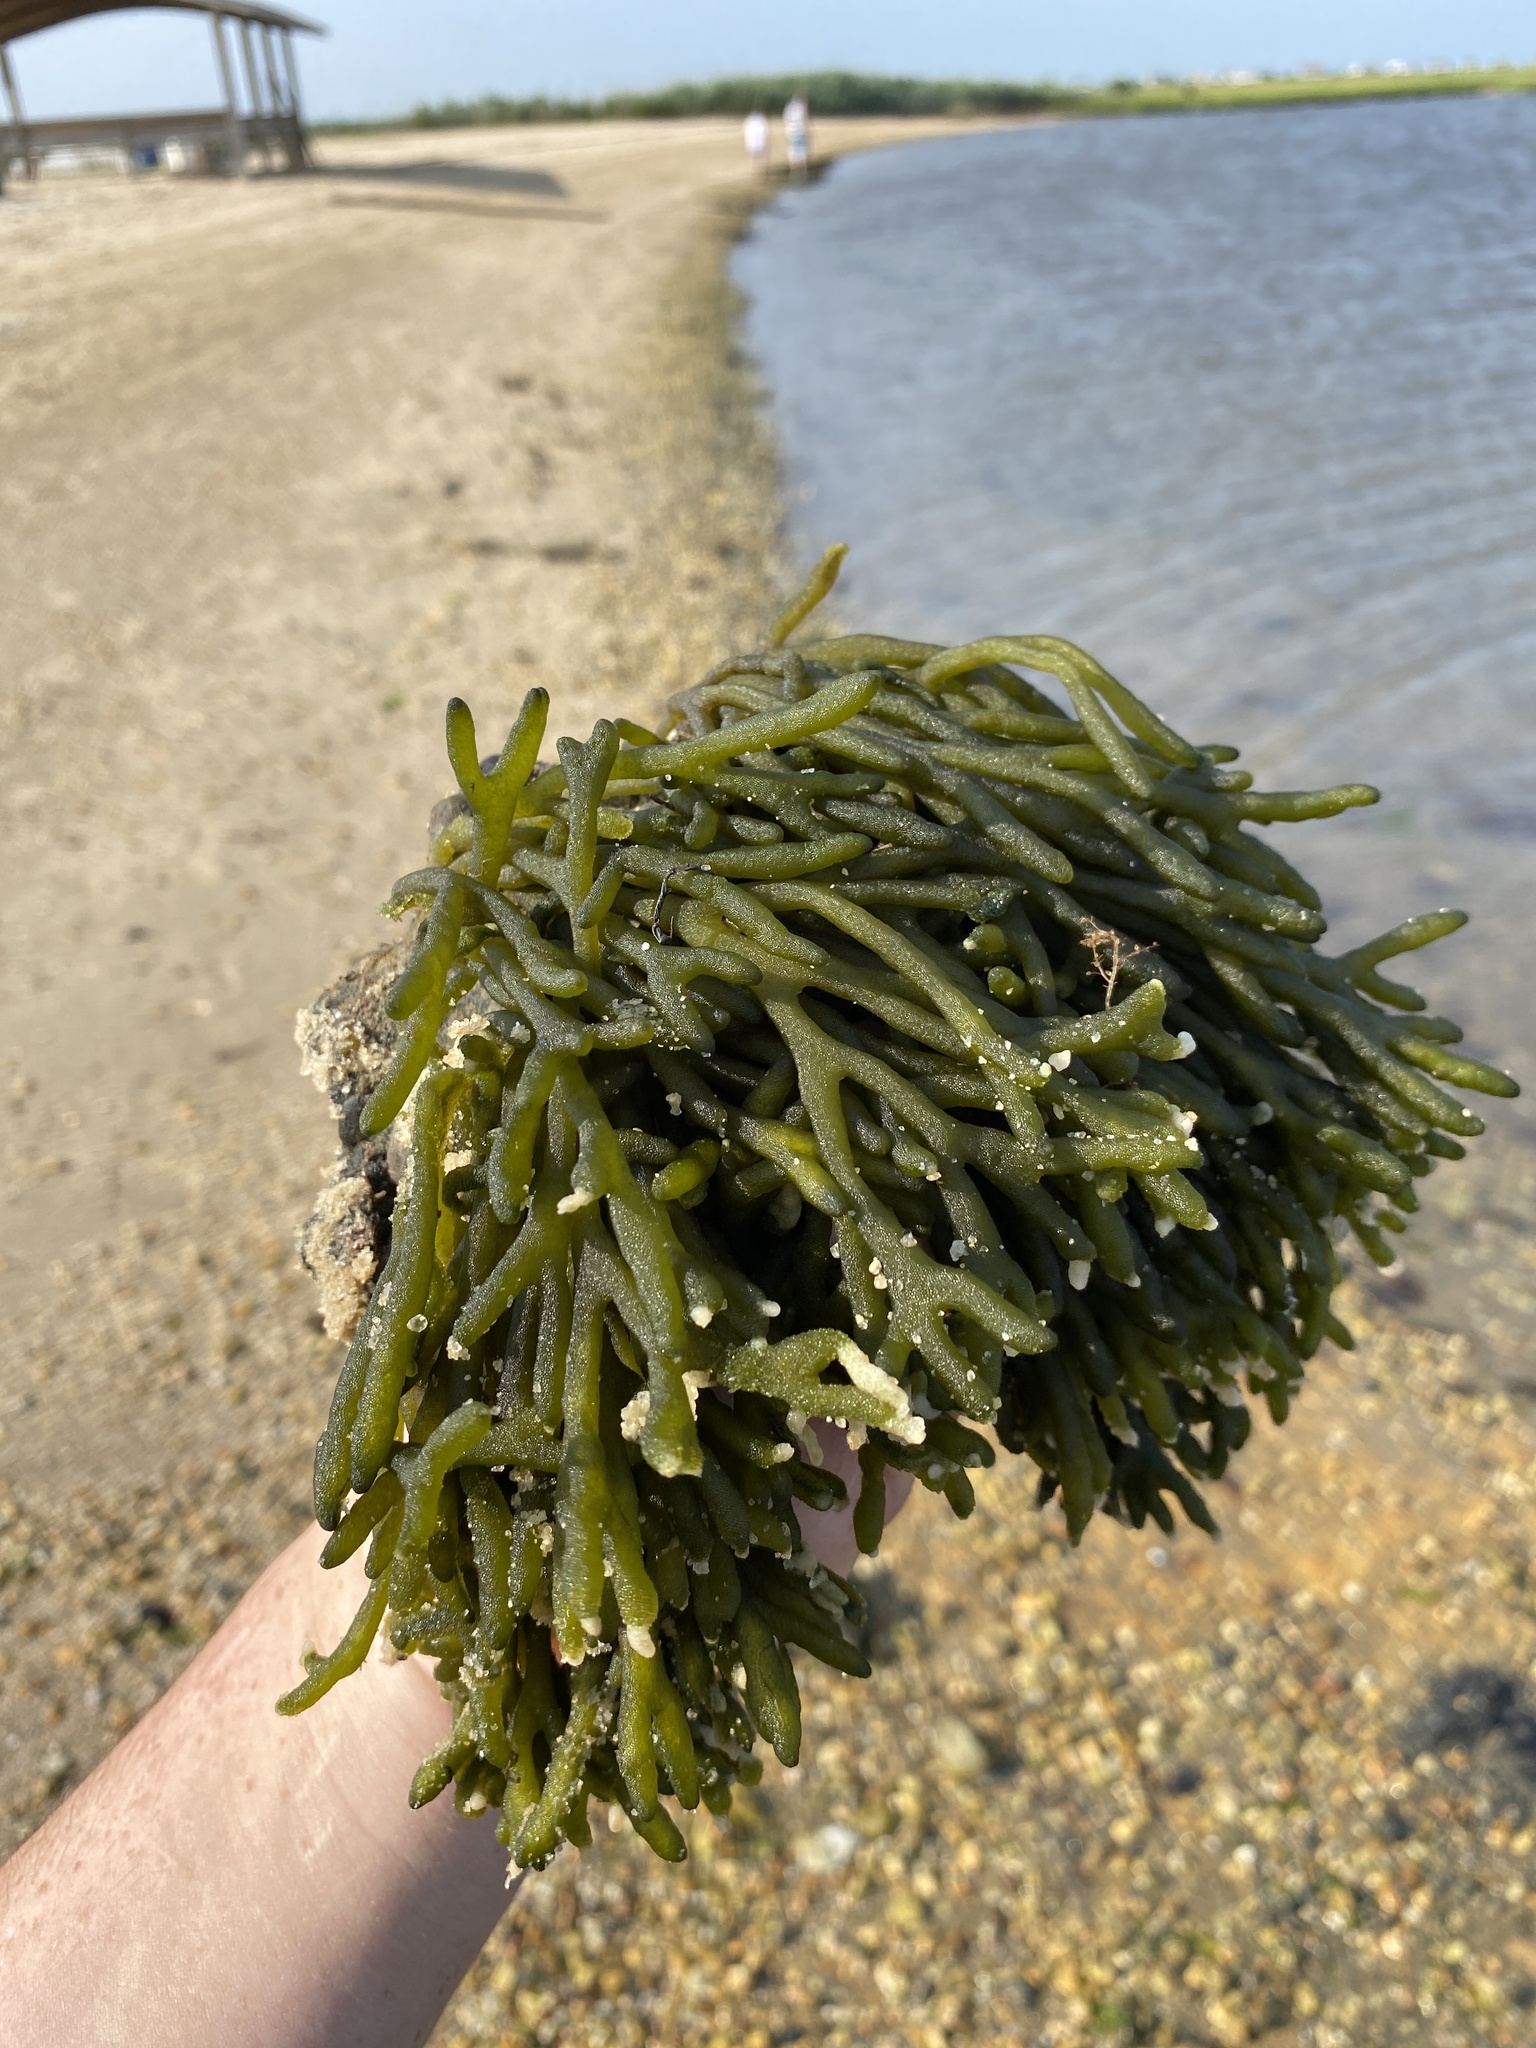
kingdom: Plantae
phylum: Chlorophyta
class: Ulvophyceae
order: Bryopsidales
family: Codiaceae
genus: Codium
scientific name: Codium fragile
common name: Dead man's fingers
